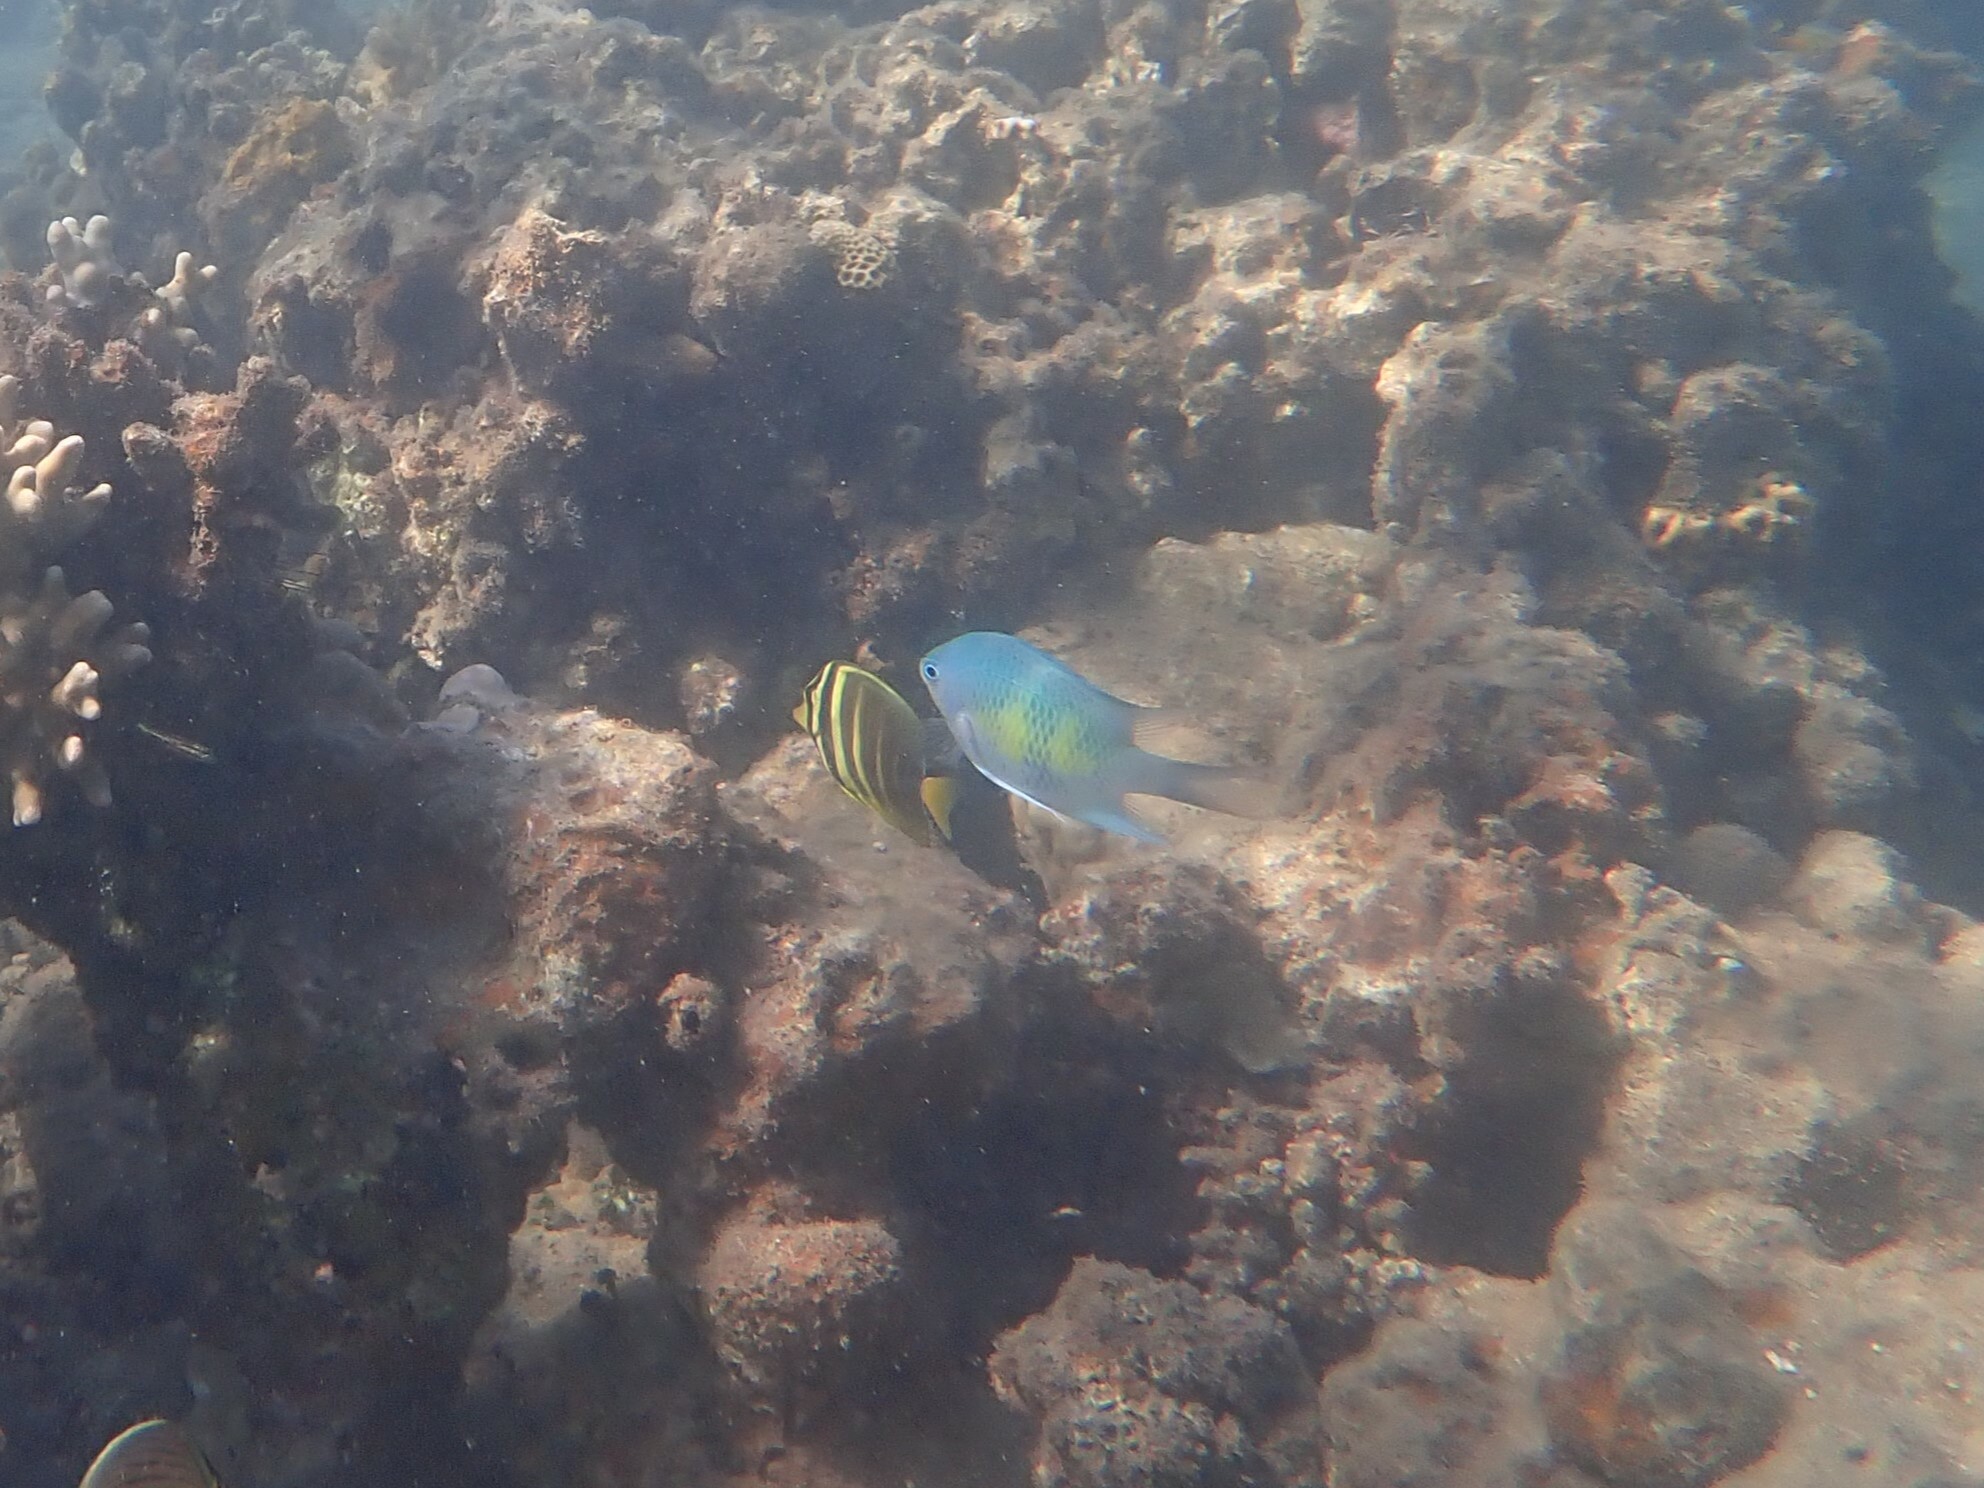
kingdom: Animalia
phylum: Chordata
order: Perciformes
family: Acanthuridae
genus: Zebrasoma
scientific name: Zebrasoma veliferum
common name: Sailfin surgeonfish
